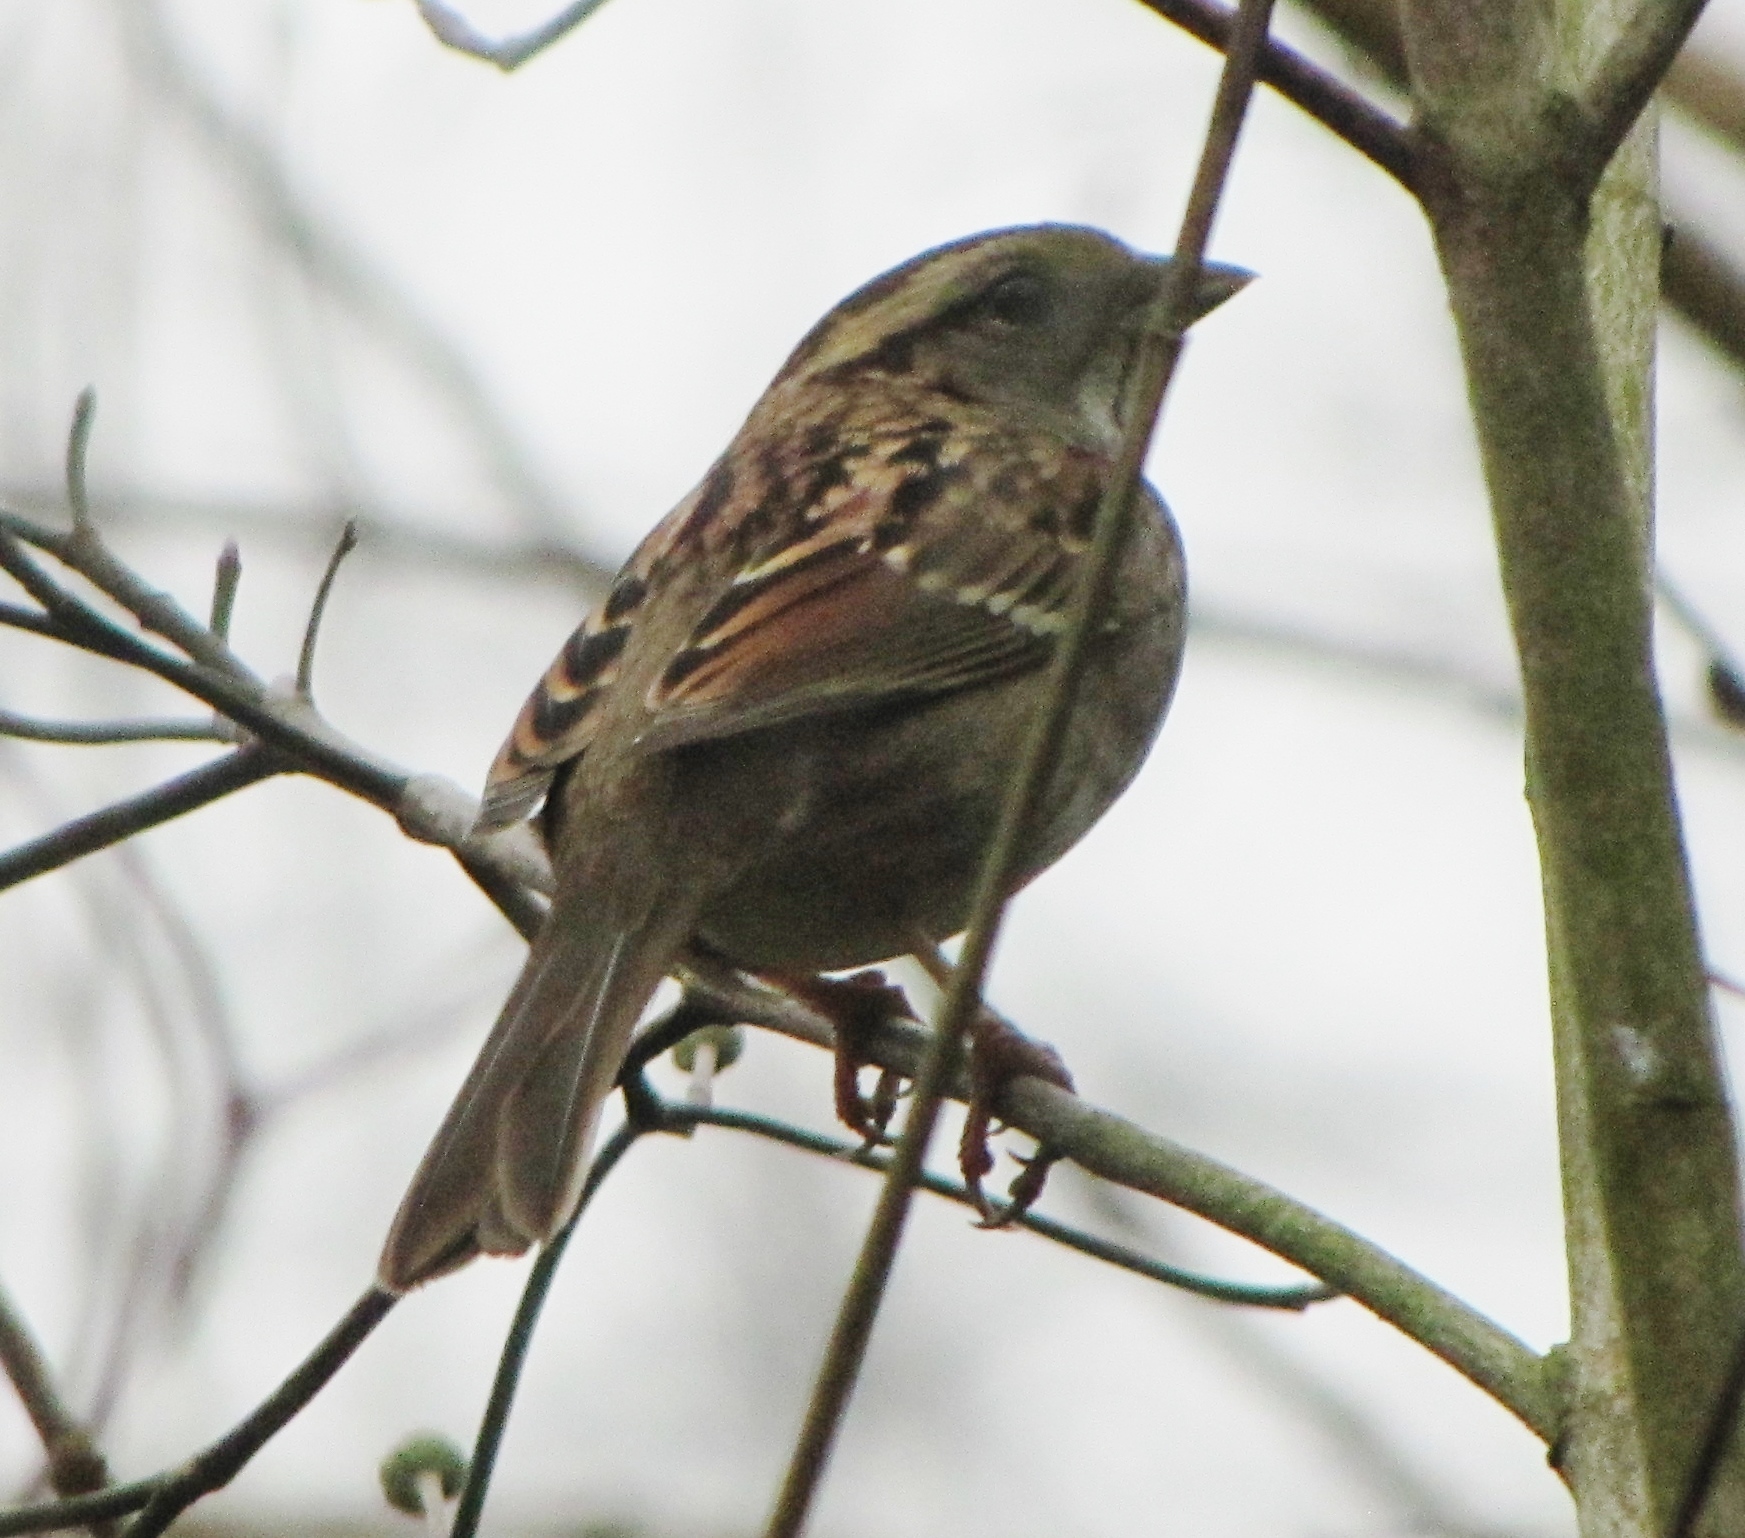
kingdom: Animalia
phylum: Chordata
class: Aves
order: Passeriformes
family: Passerellidae
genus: Zonotrichia
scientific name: Zonotrichia albicollis
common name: White-throated sparrow
